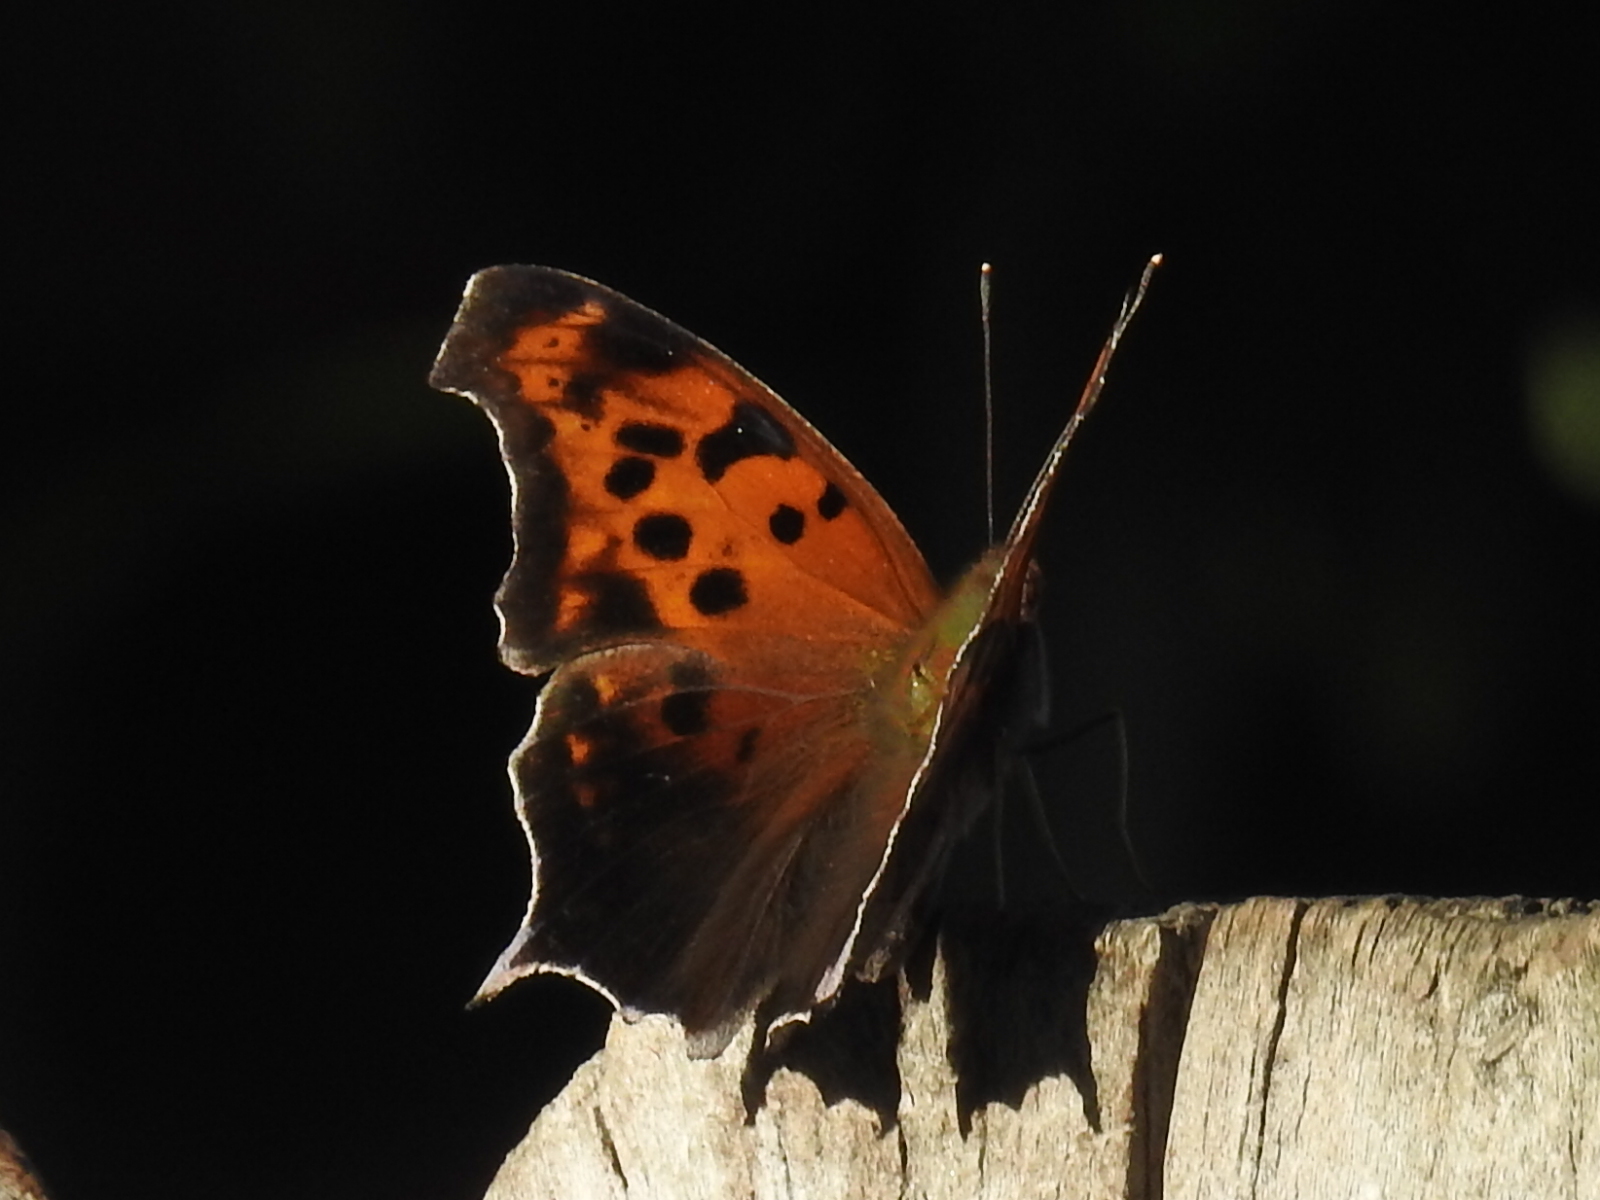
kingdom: Animalia
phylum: Arthropoda
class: Insecta
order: Lepidoptera
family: Nymphalidae
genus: Polygonia
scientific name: Polygonia interrogationis
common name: Question mark
